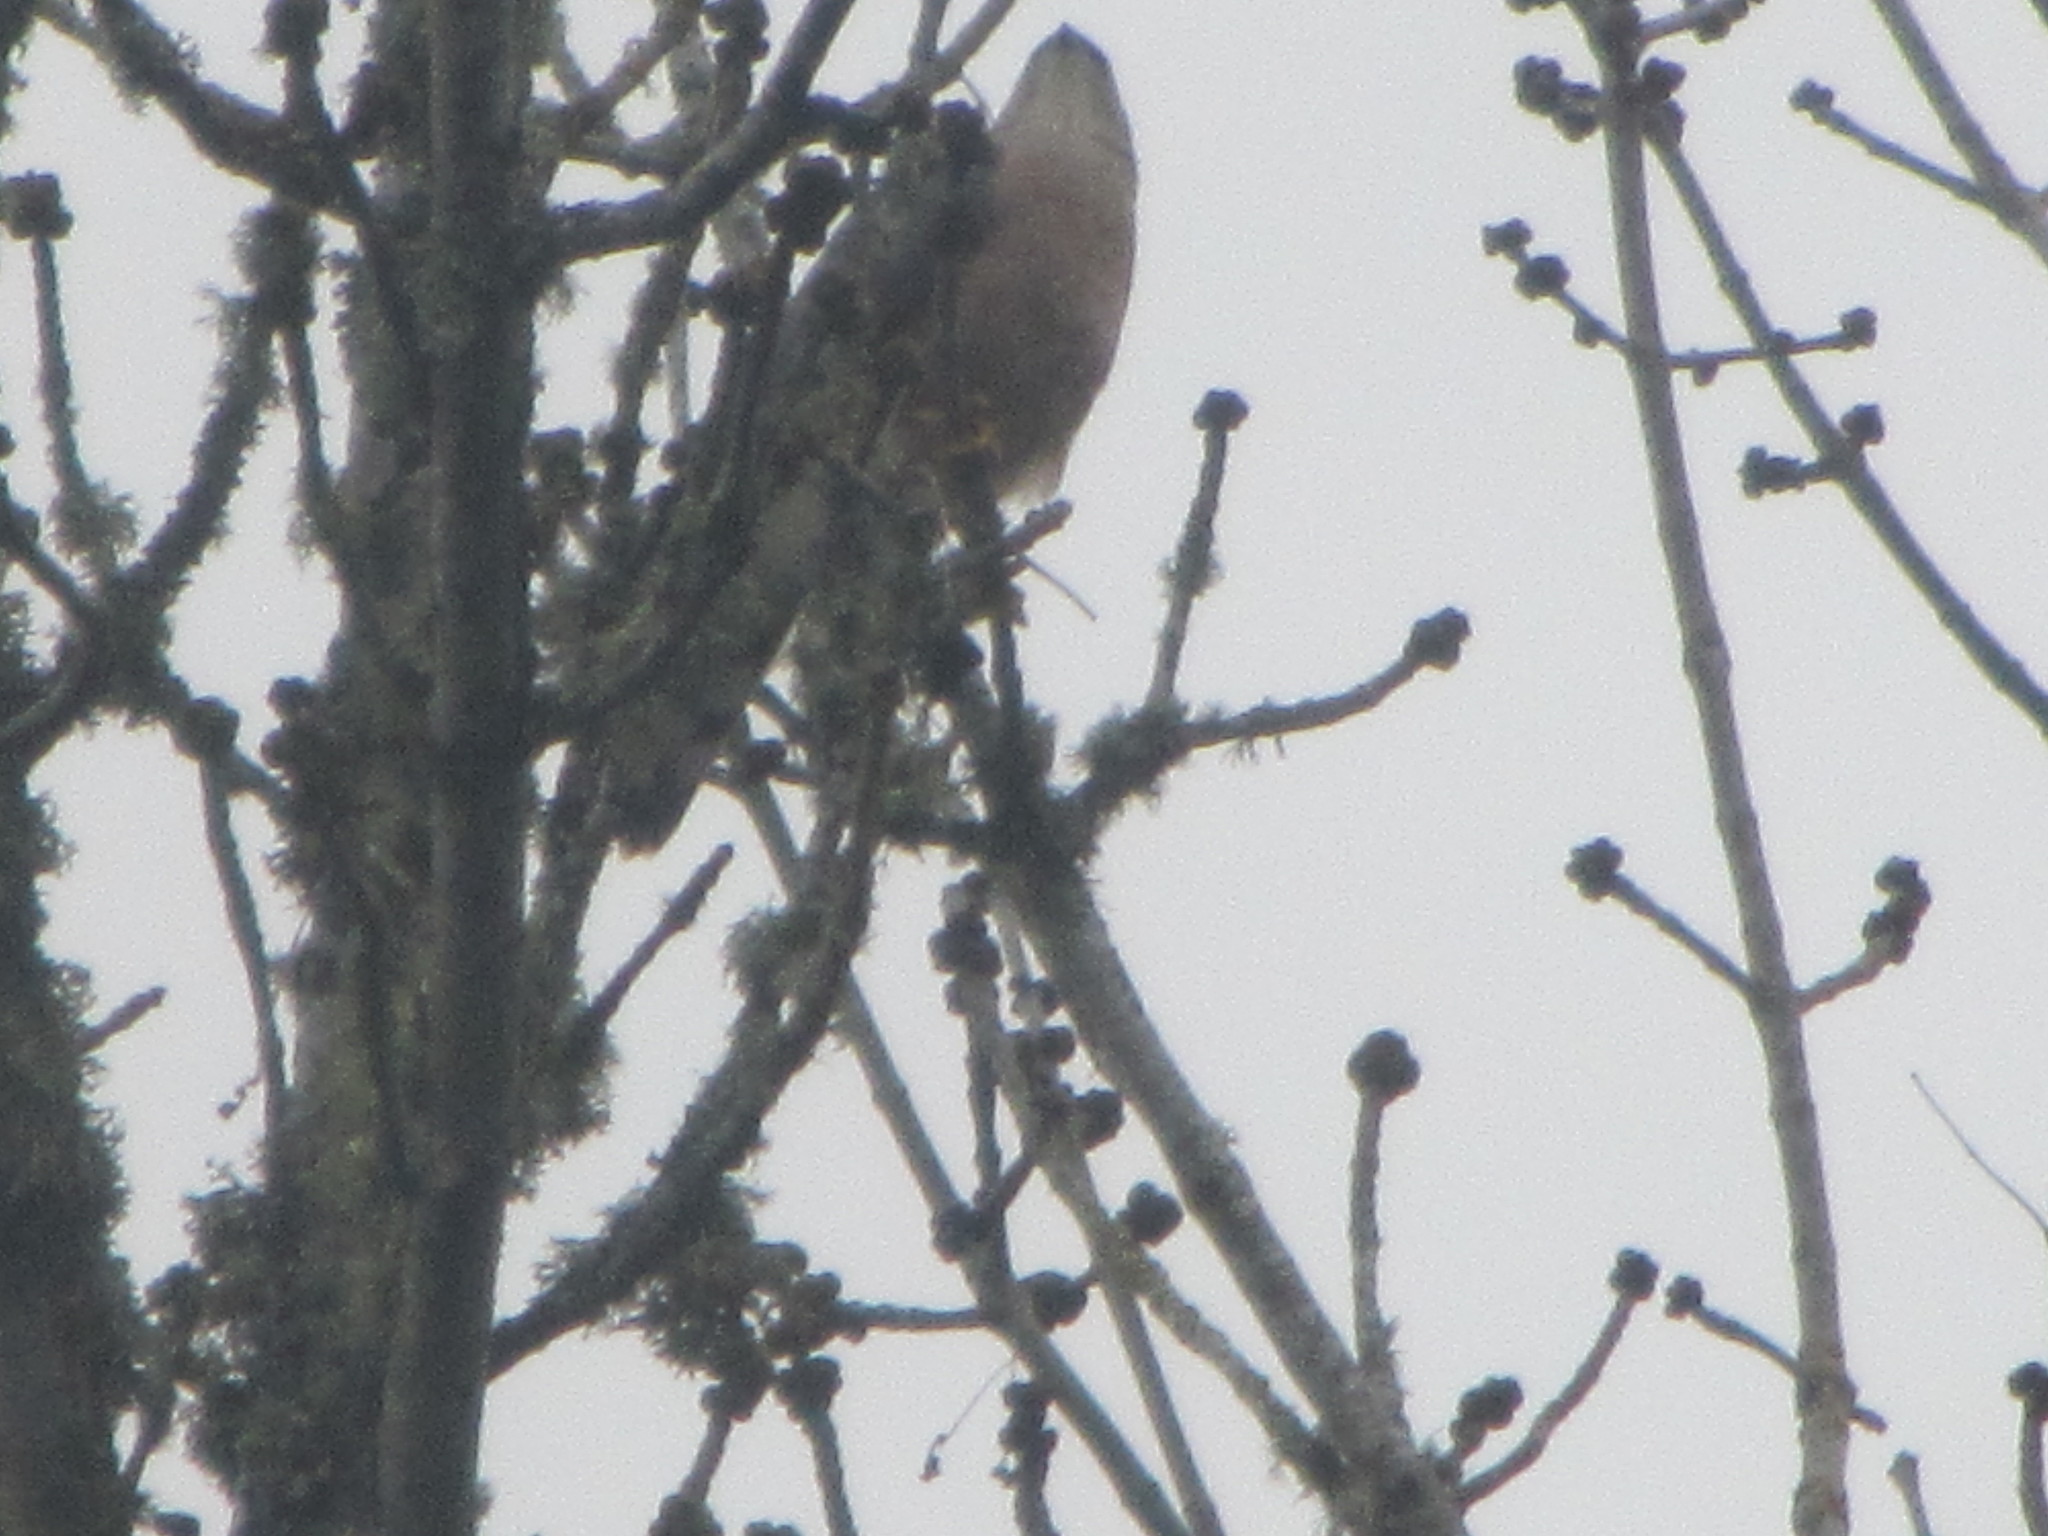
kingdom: Animalia
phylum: Chordata
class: Aves
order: Accipitriformes
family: Accipitridae
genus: Accipiter
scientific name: Accipiter cooperii
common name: Cooper's hawk
